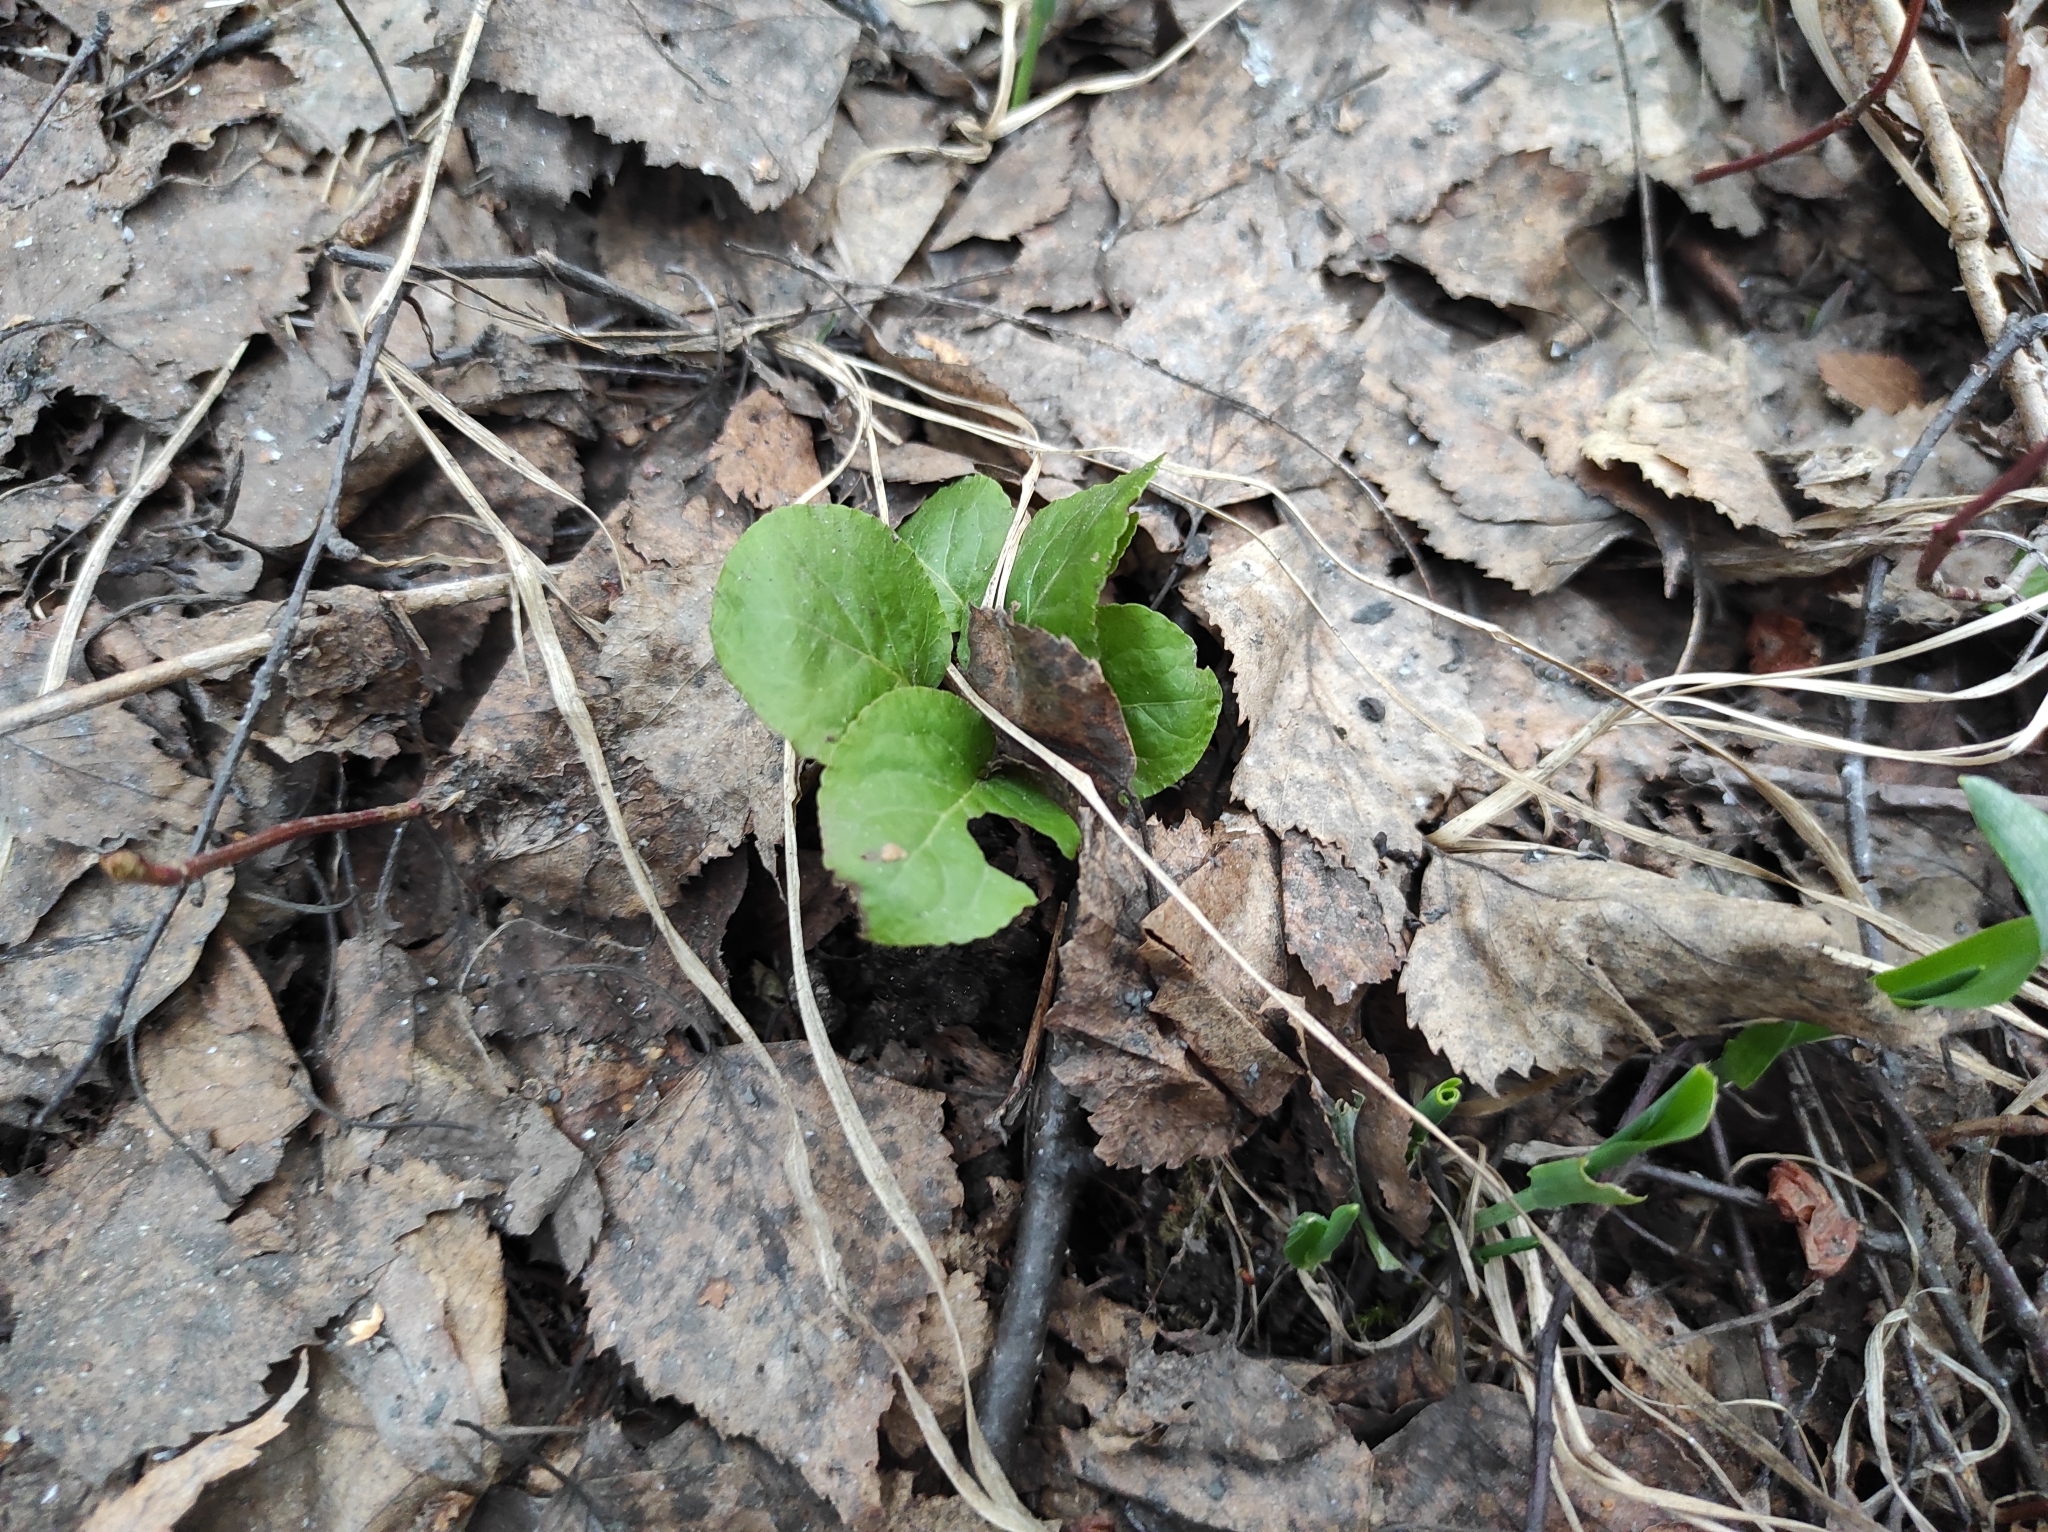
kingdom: Plantae
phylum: Tracheophyta
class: Magnoliopsida
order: Ericales
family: Ericaceae
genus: Pyrola
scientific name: Pyrola
